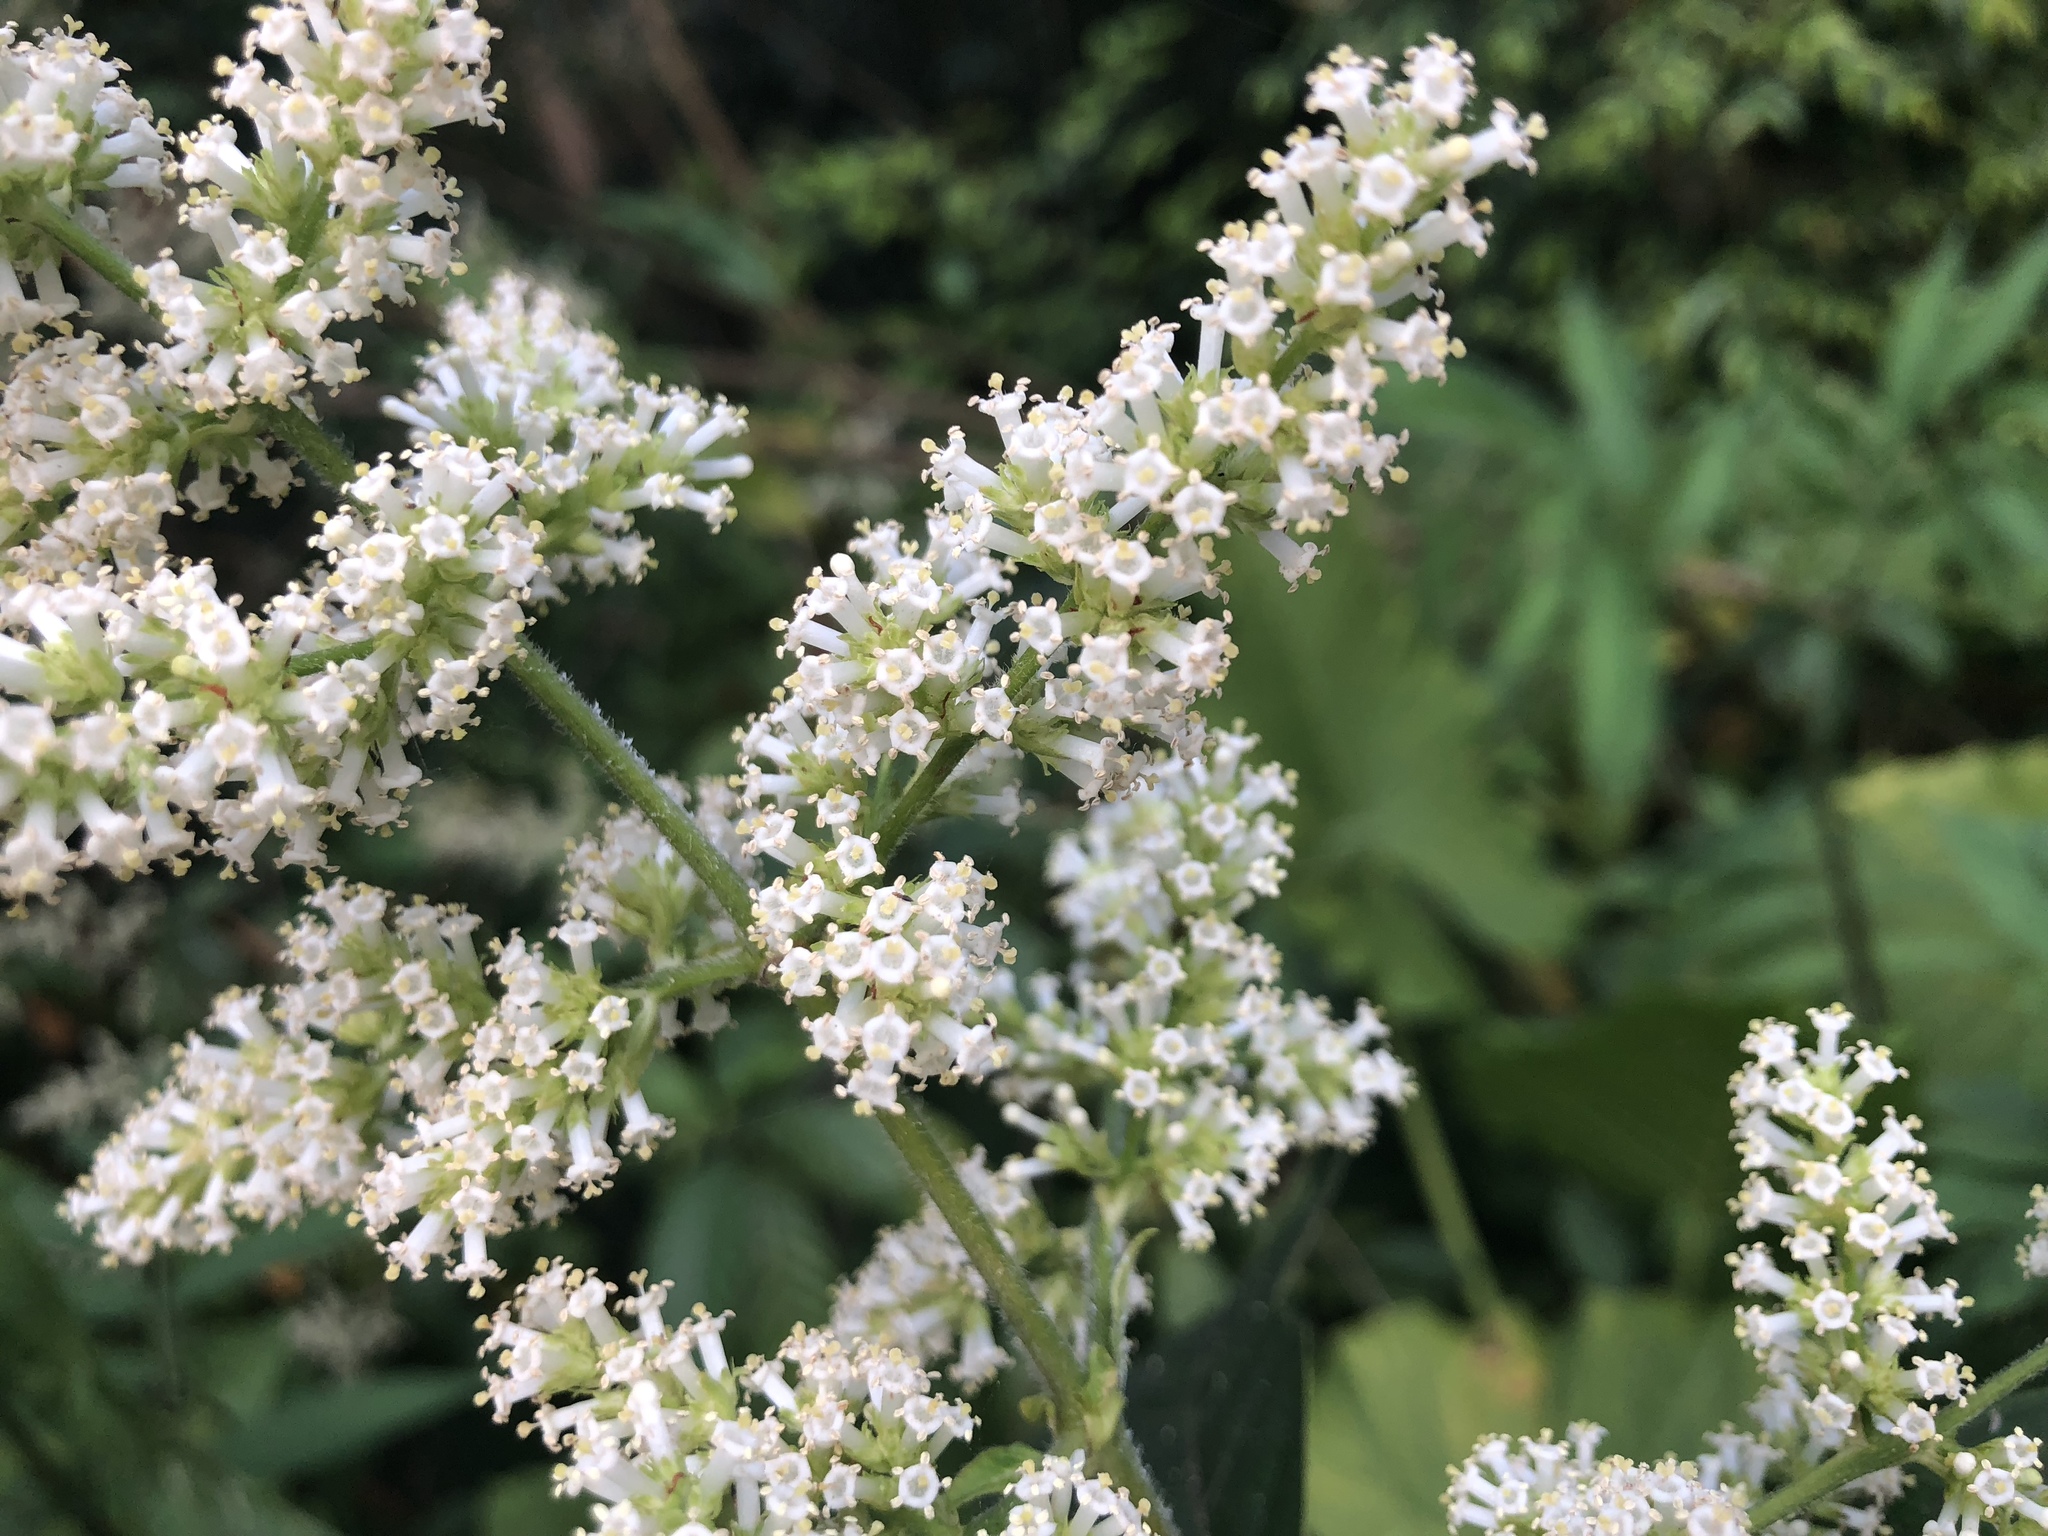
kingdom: Plantae
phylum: Tracheophyta
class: Magnoliopsida
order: Gentianales
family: Rubiaceae
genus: Wendlandia
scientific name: Wendlandia uvariifolia
